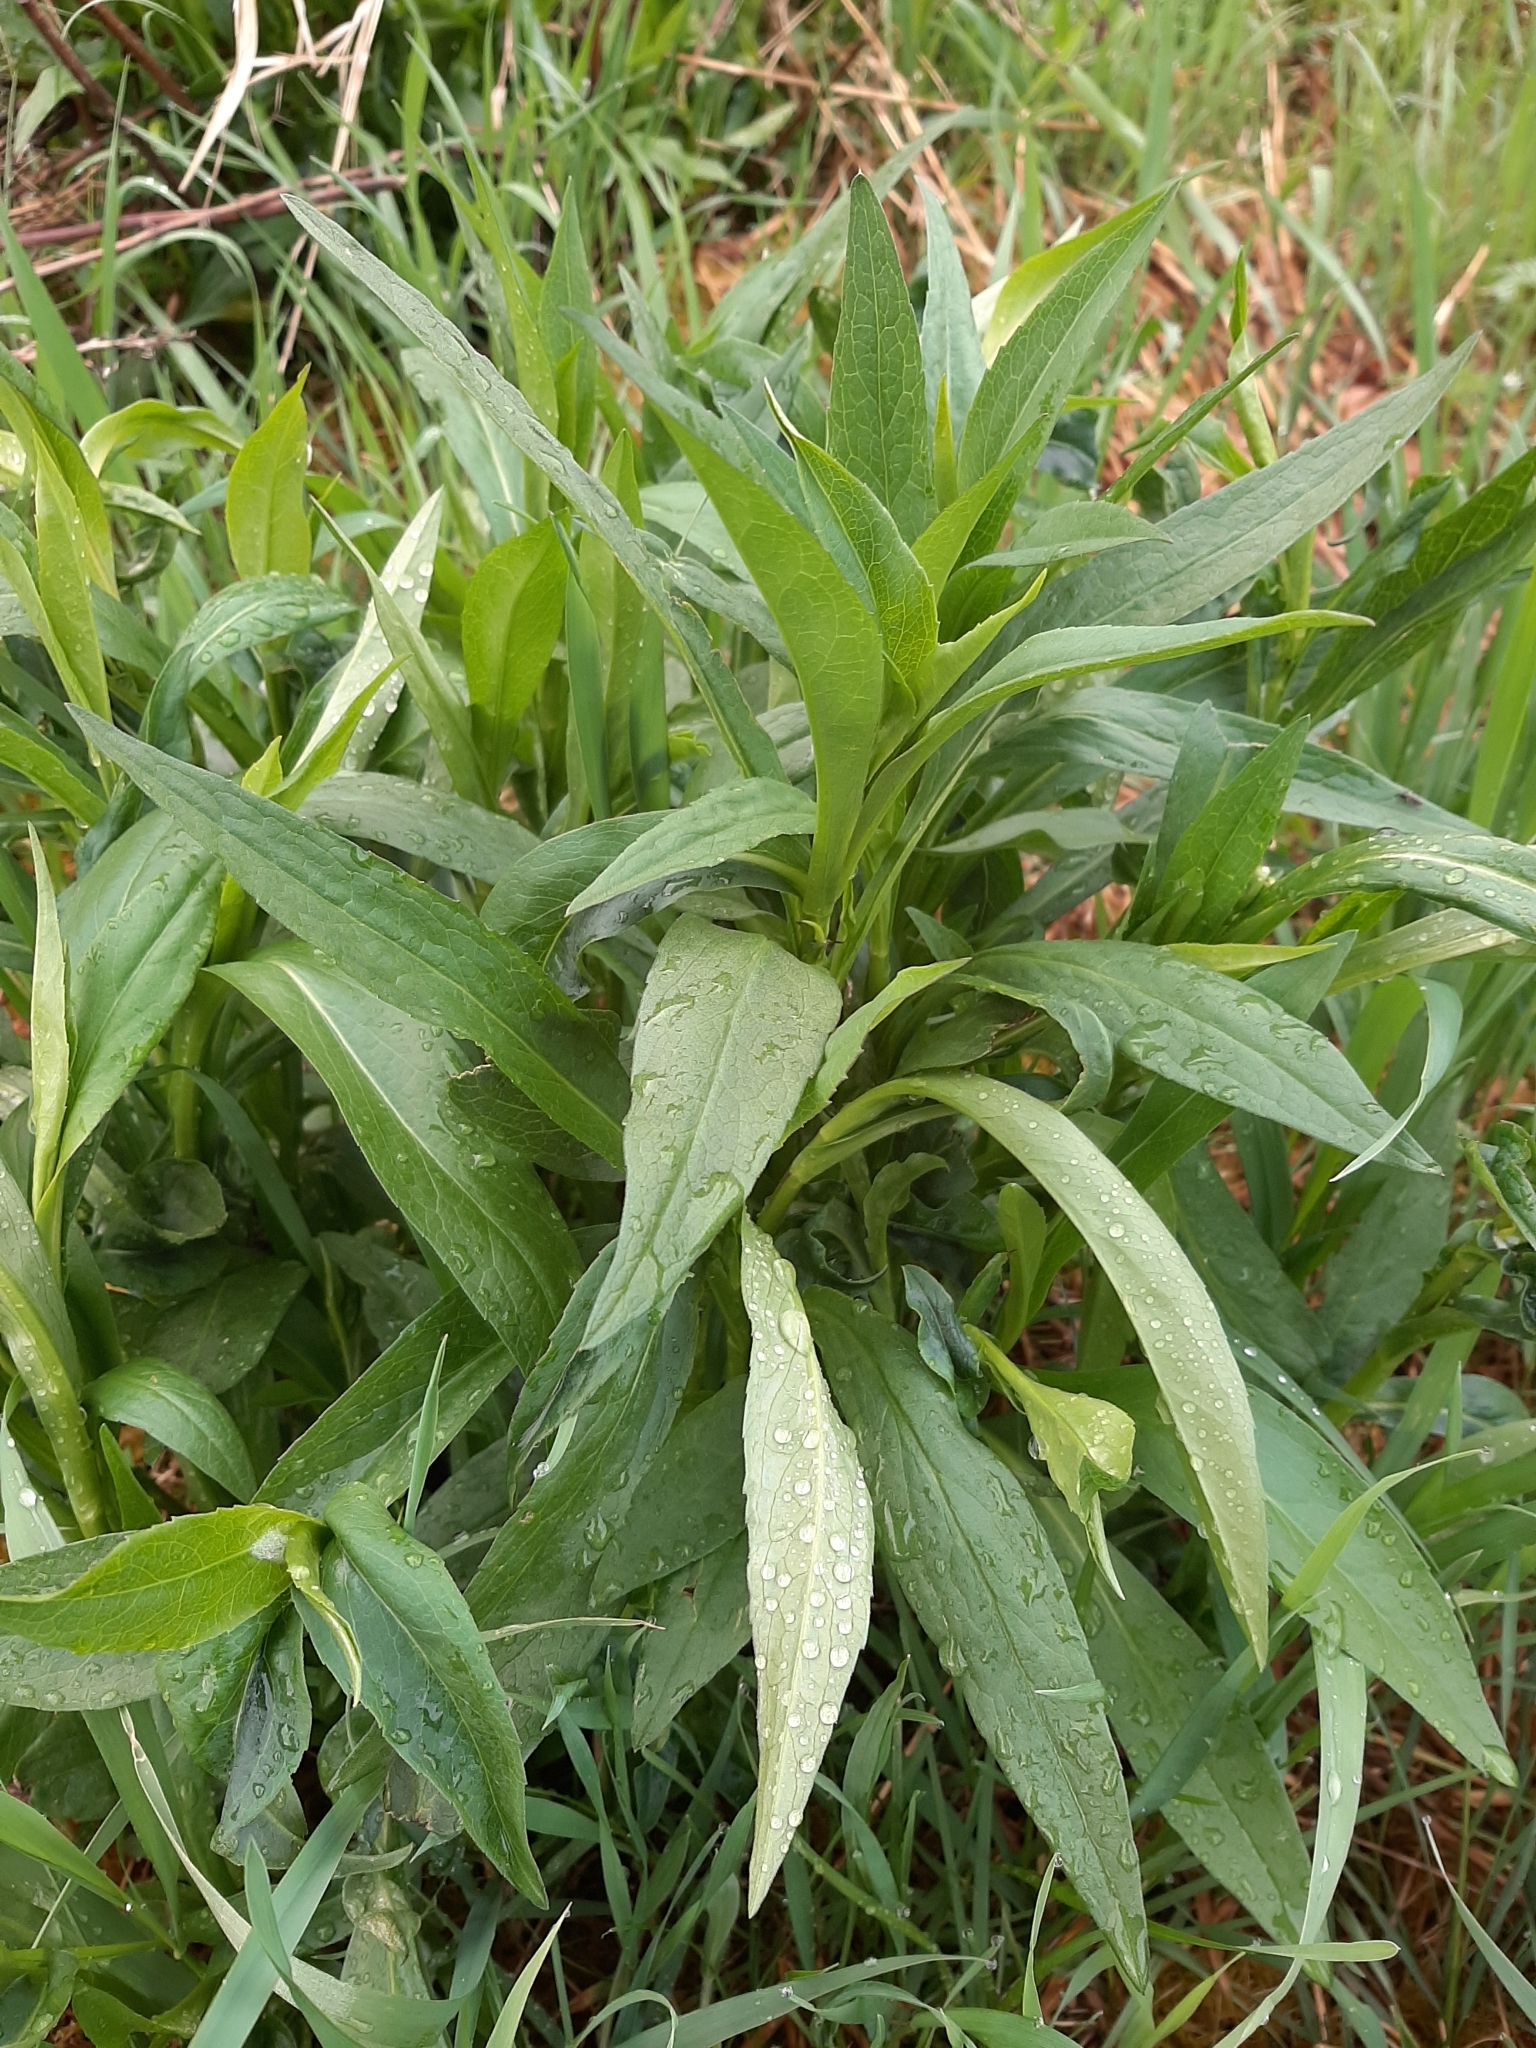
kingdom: Plantae
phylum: Tracheophyta
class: Magnoliopsida
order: Asterales
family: Asteraceae
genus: Cichorium
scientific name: Cichorium intybus
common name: Chicory
